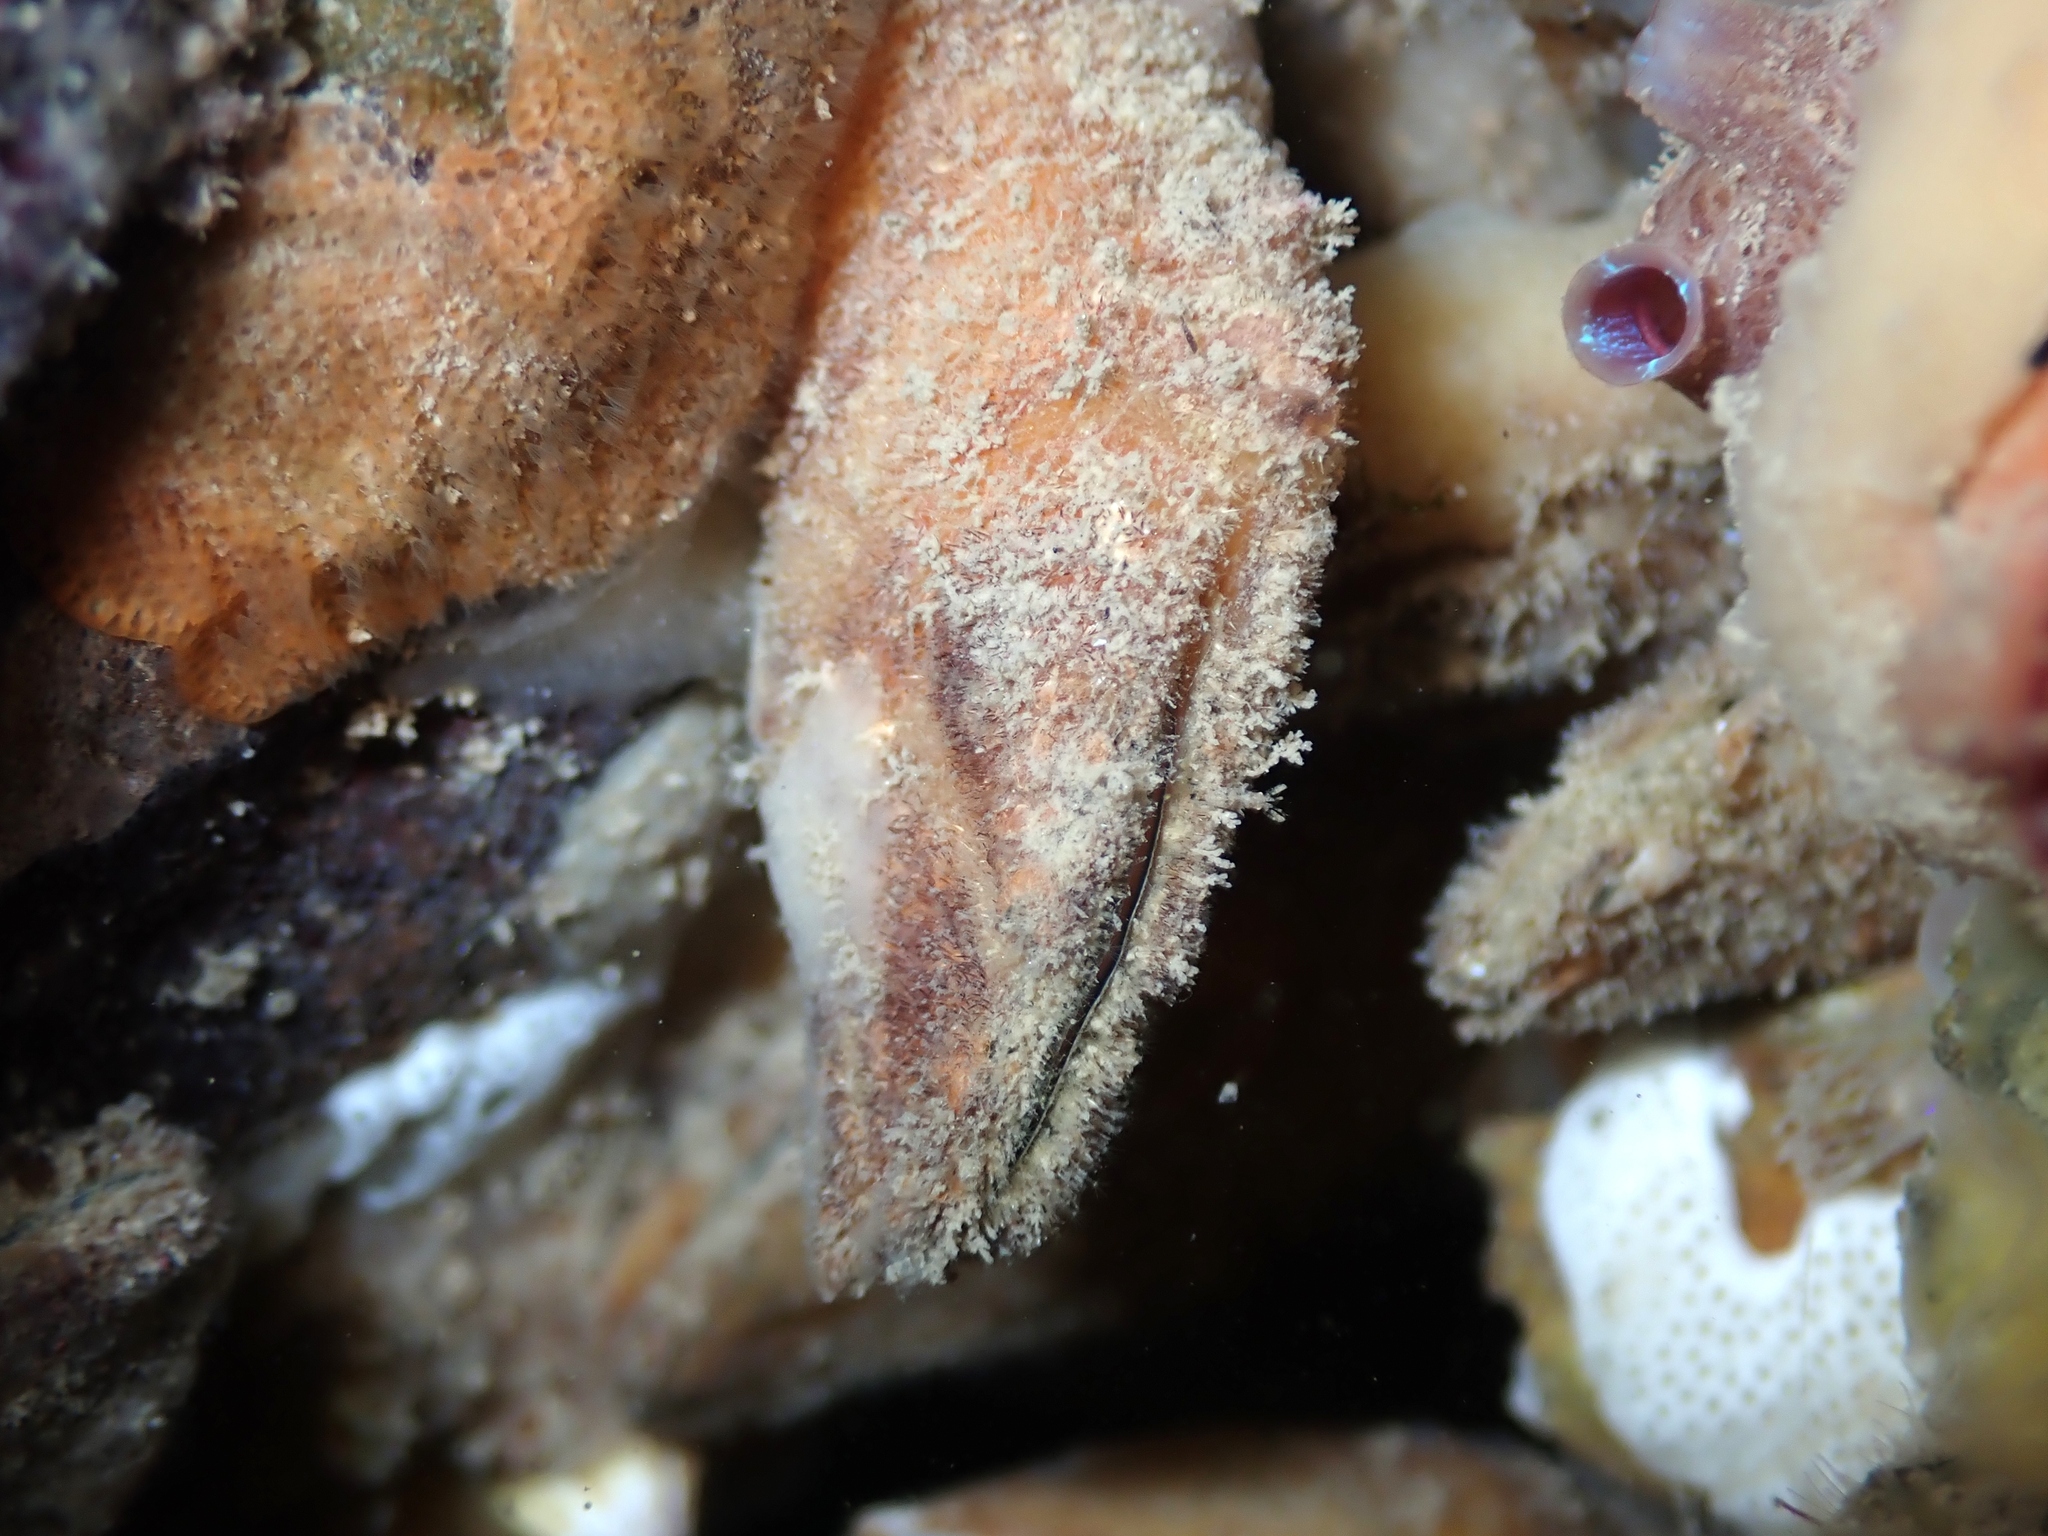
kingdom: Animalia
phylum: Arthropoda
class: Maxillopoda
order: Pedunculata
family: Calanticidae
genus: Calantica
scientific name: Calantica villosa
